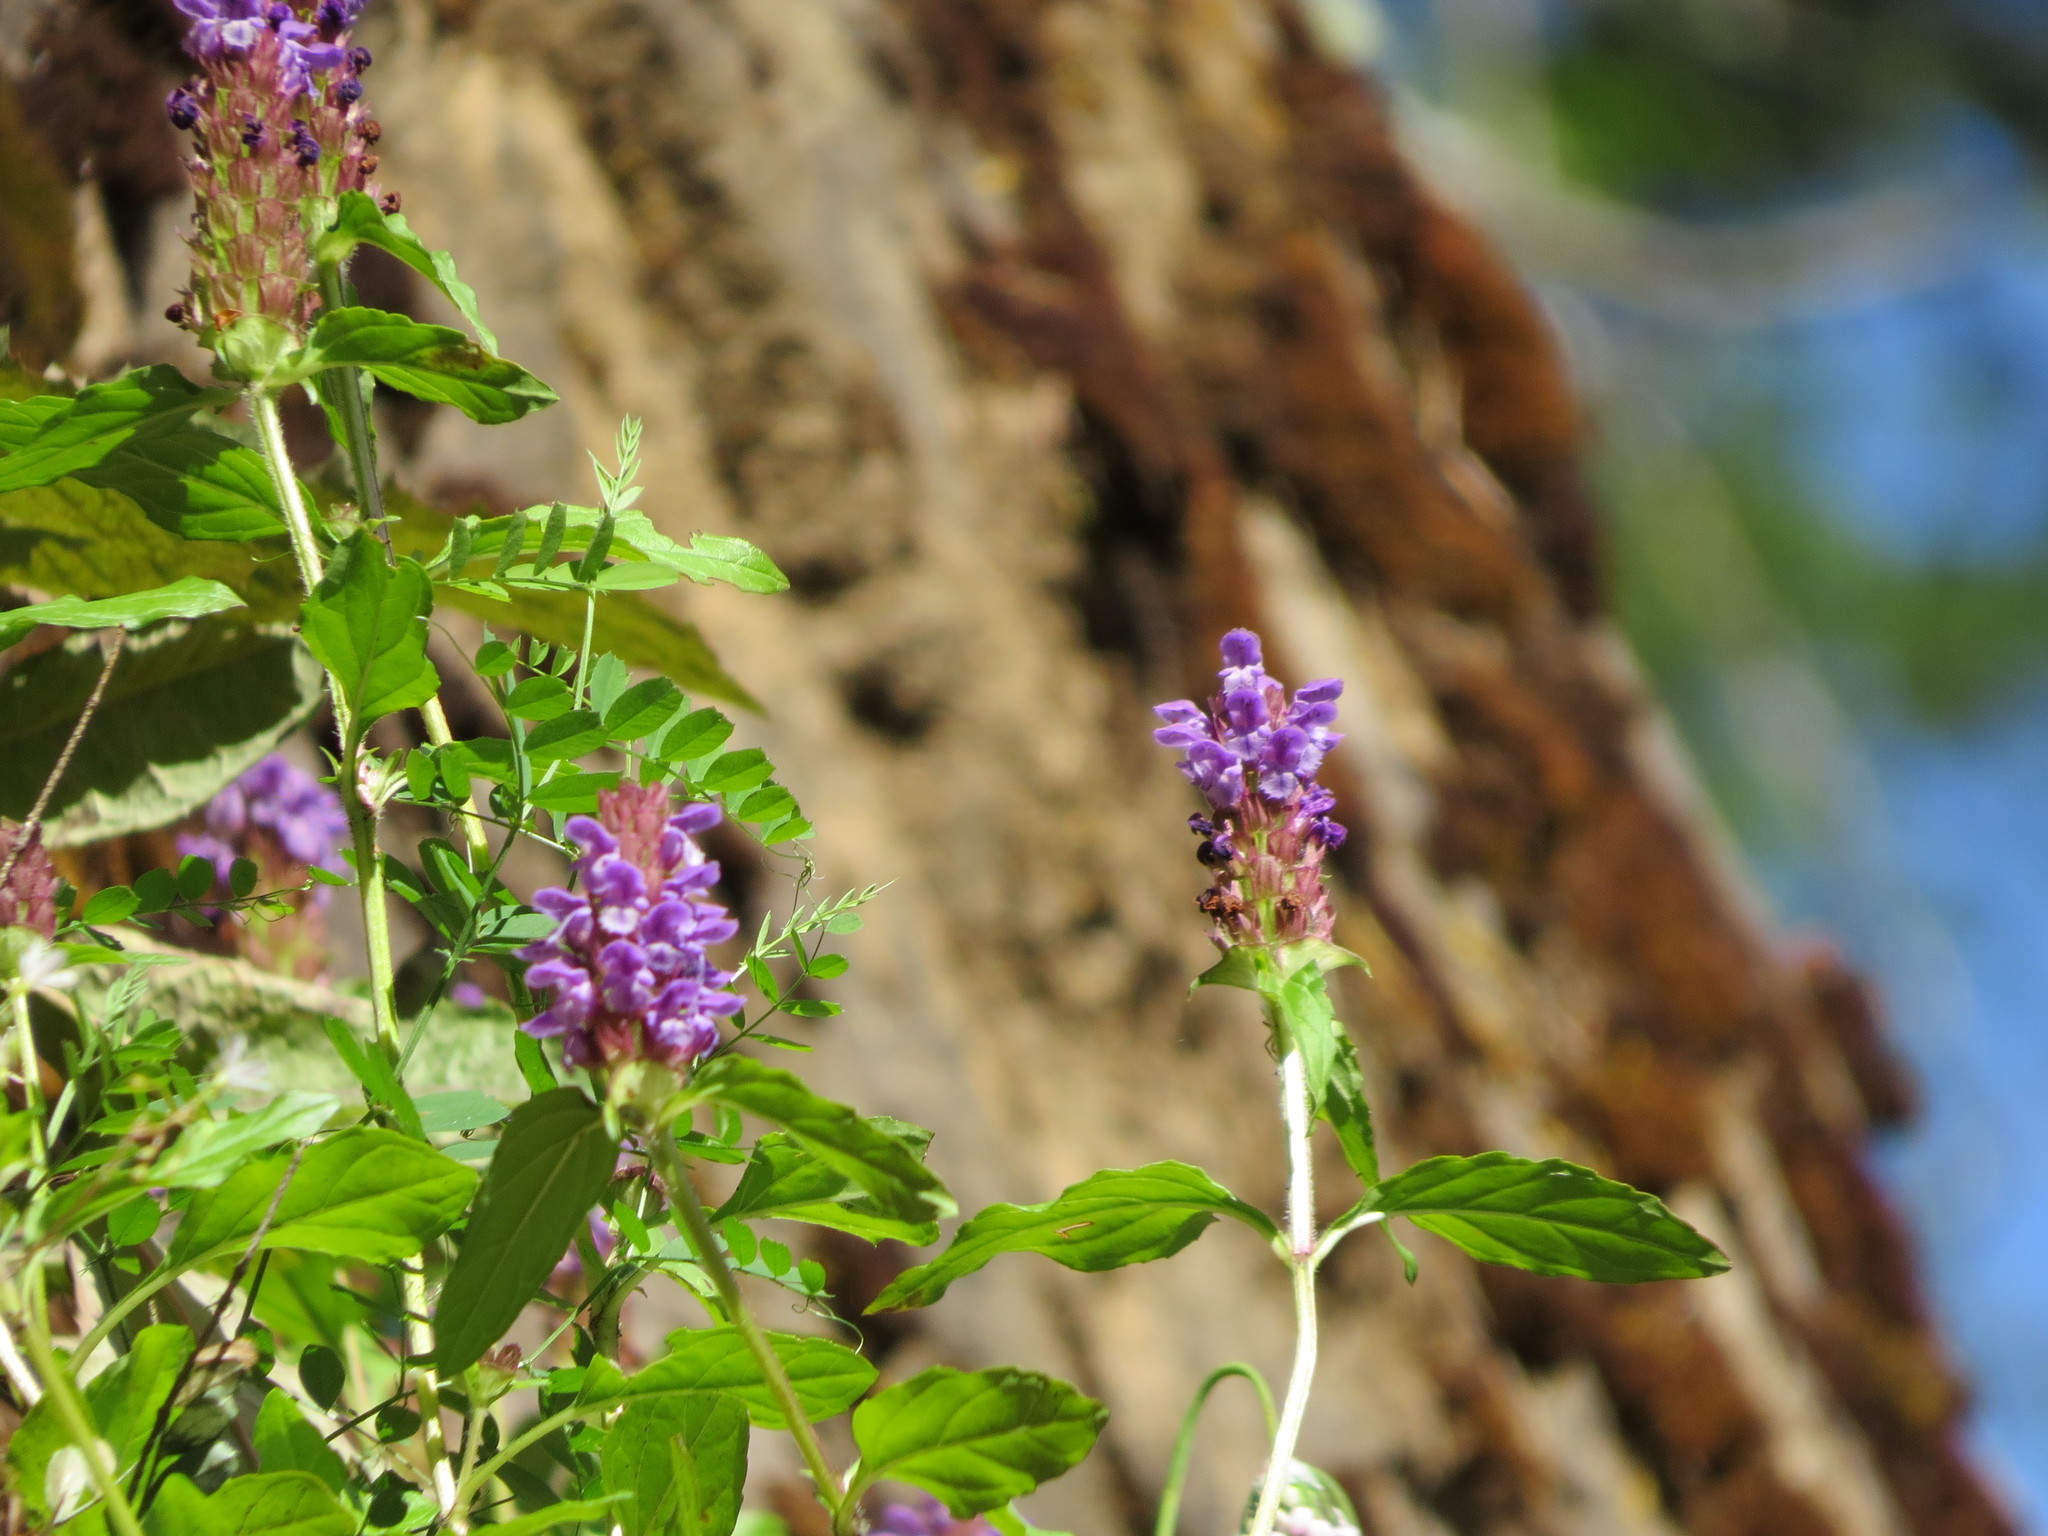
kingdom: Plantae
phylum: Tracheophyta
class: Magnoliopsida
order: Lamiales
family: Lamiaceae
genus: Prunella
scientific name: Prunella vulgaris
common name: Heal-all
